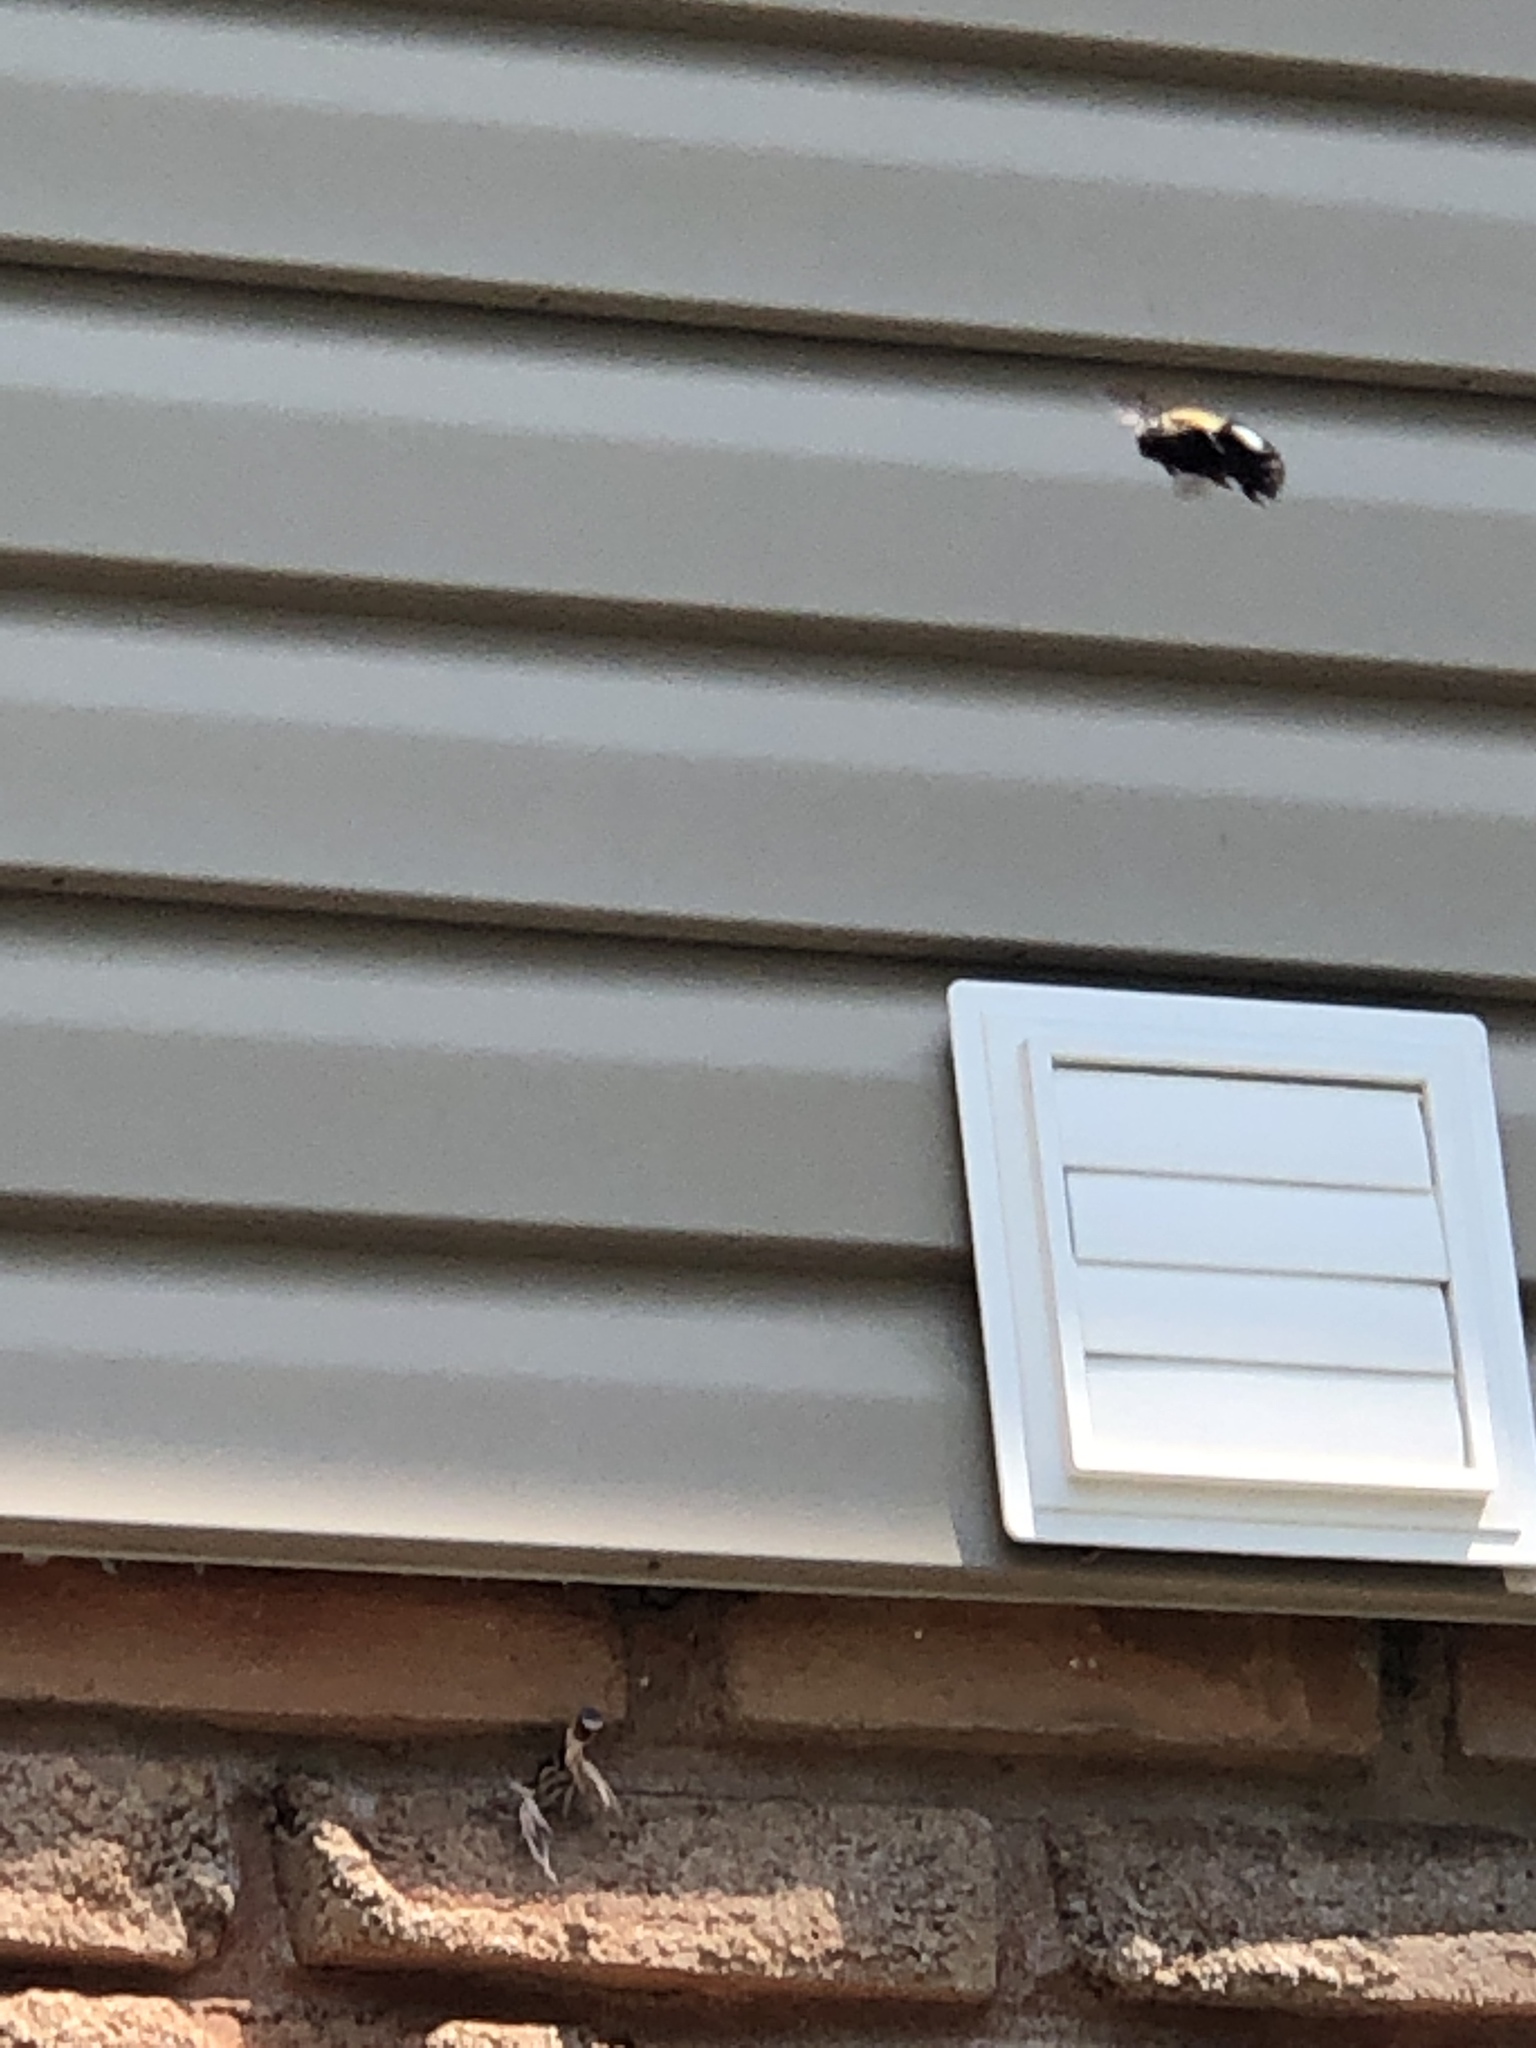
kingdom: Animalia
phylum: Arthropoda
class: Insecta
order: Hymenoptera
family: Apidae
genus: Xylocopa
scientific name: Xylocopa virginica
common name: Carpenter bee
